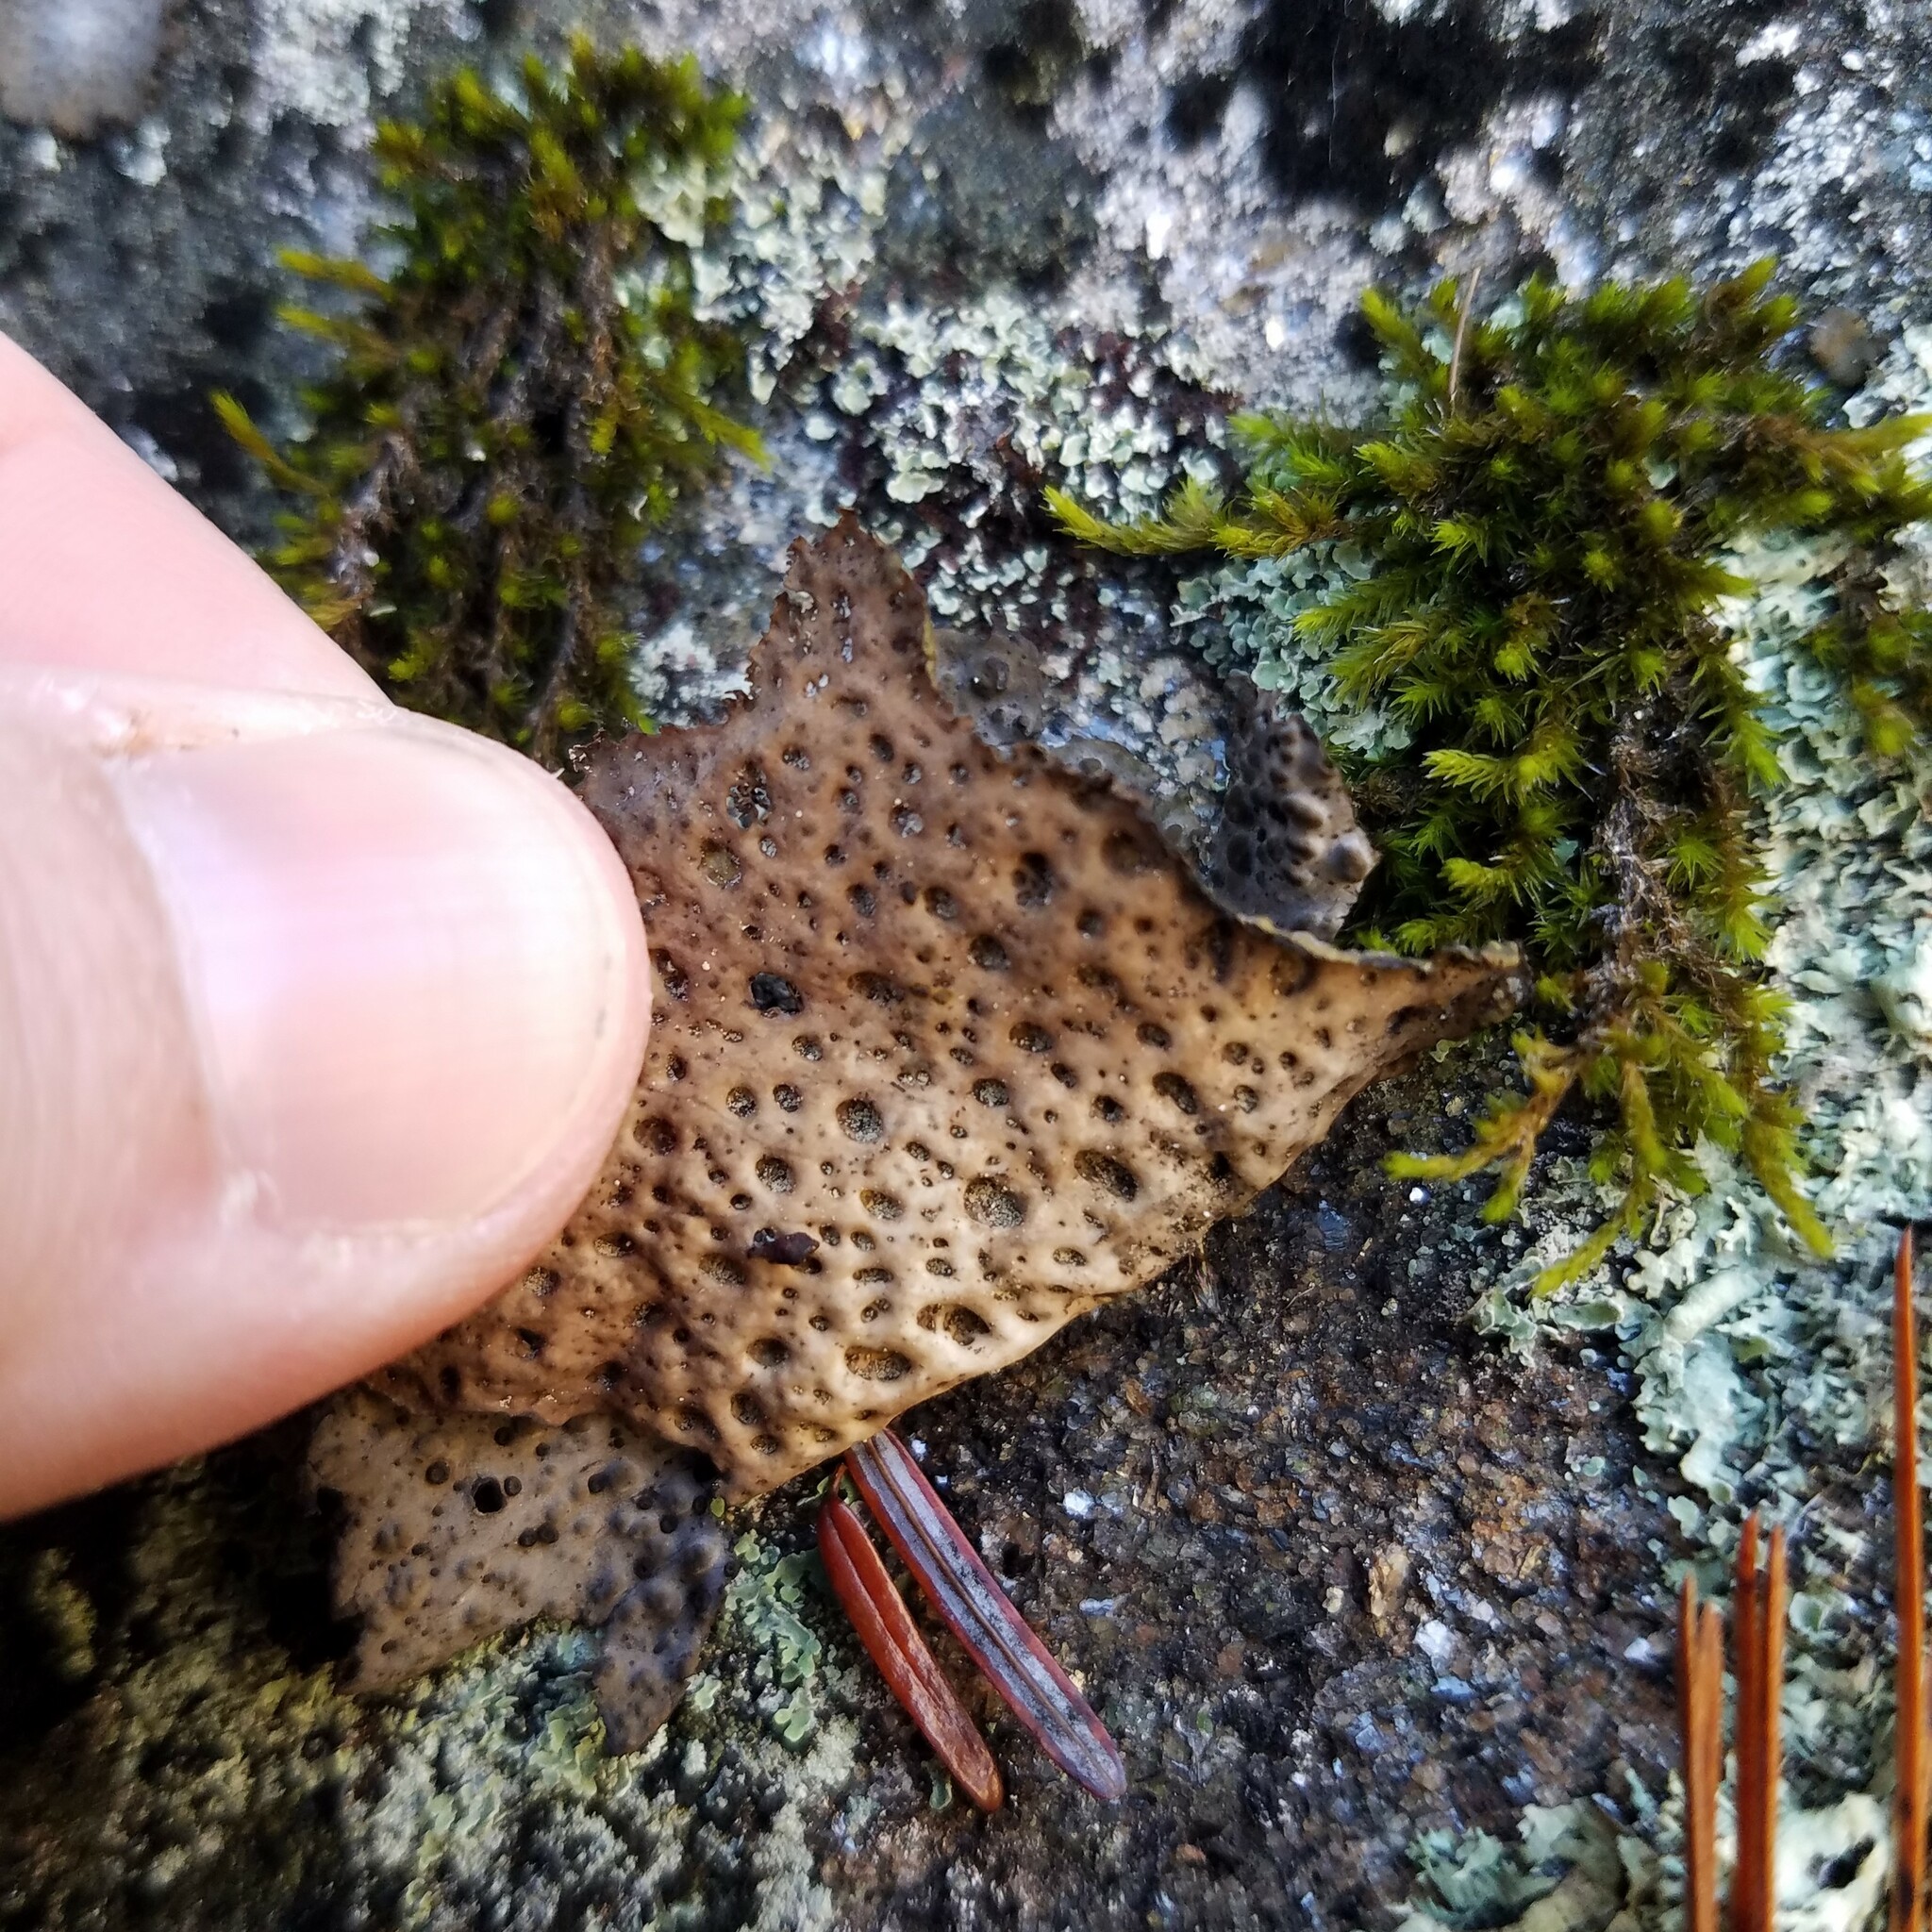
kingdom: Fungi
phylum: Ascomycota
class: Lecanoromycetes
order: Umbilicariales
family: Umbilicariaceae
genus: Lasallia
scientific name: Lasallia papulosa
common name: Common toadskin lichen
